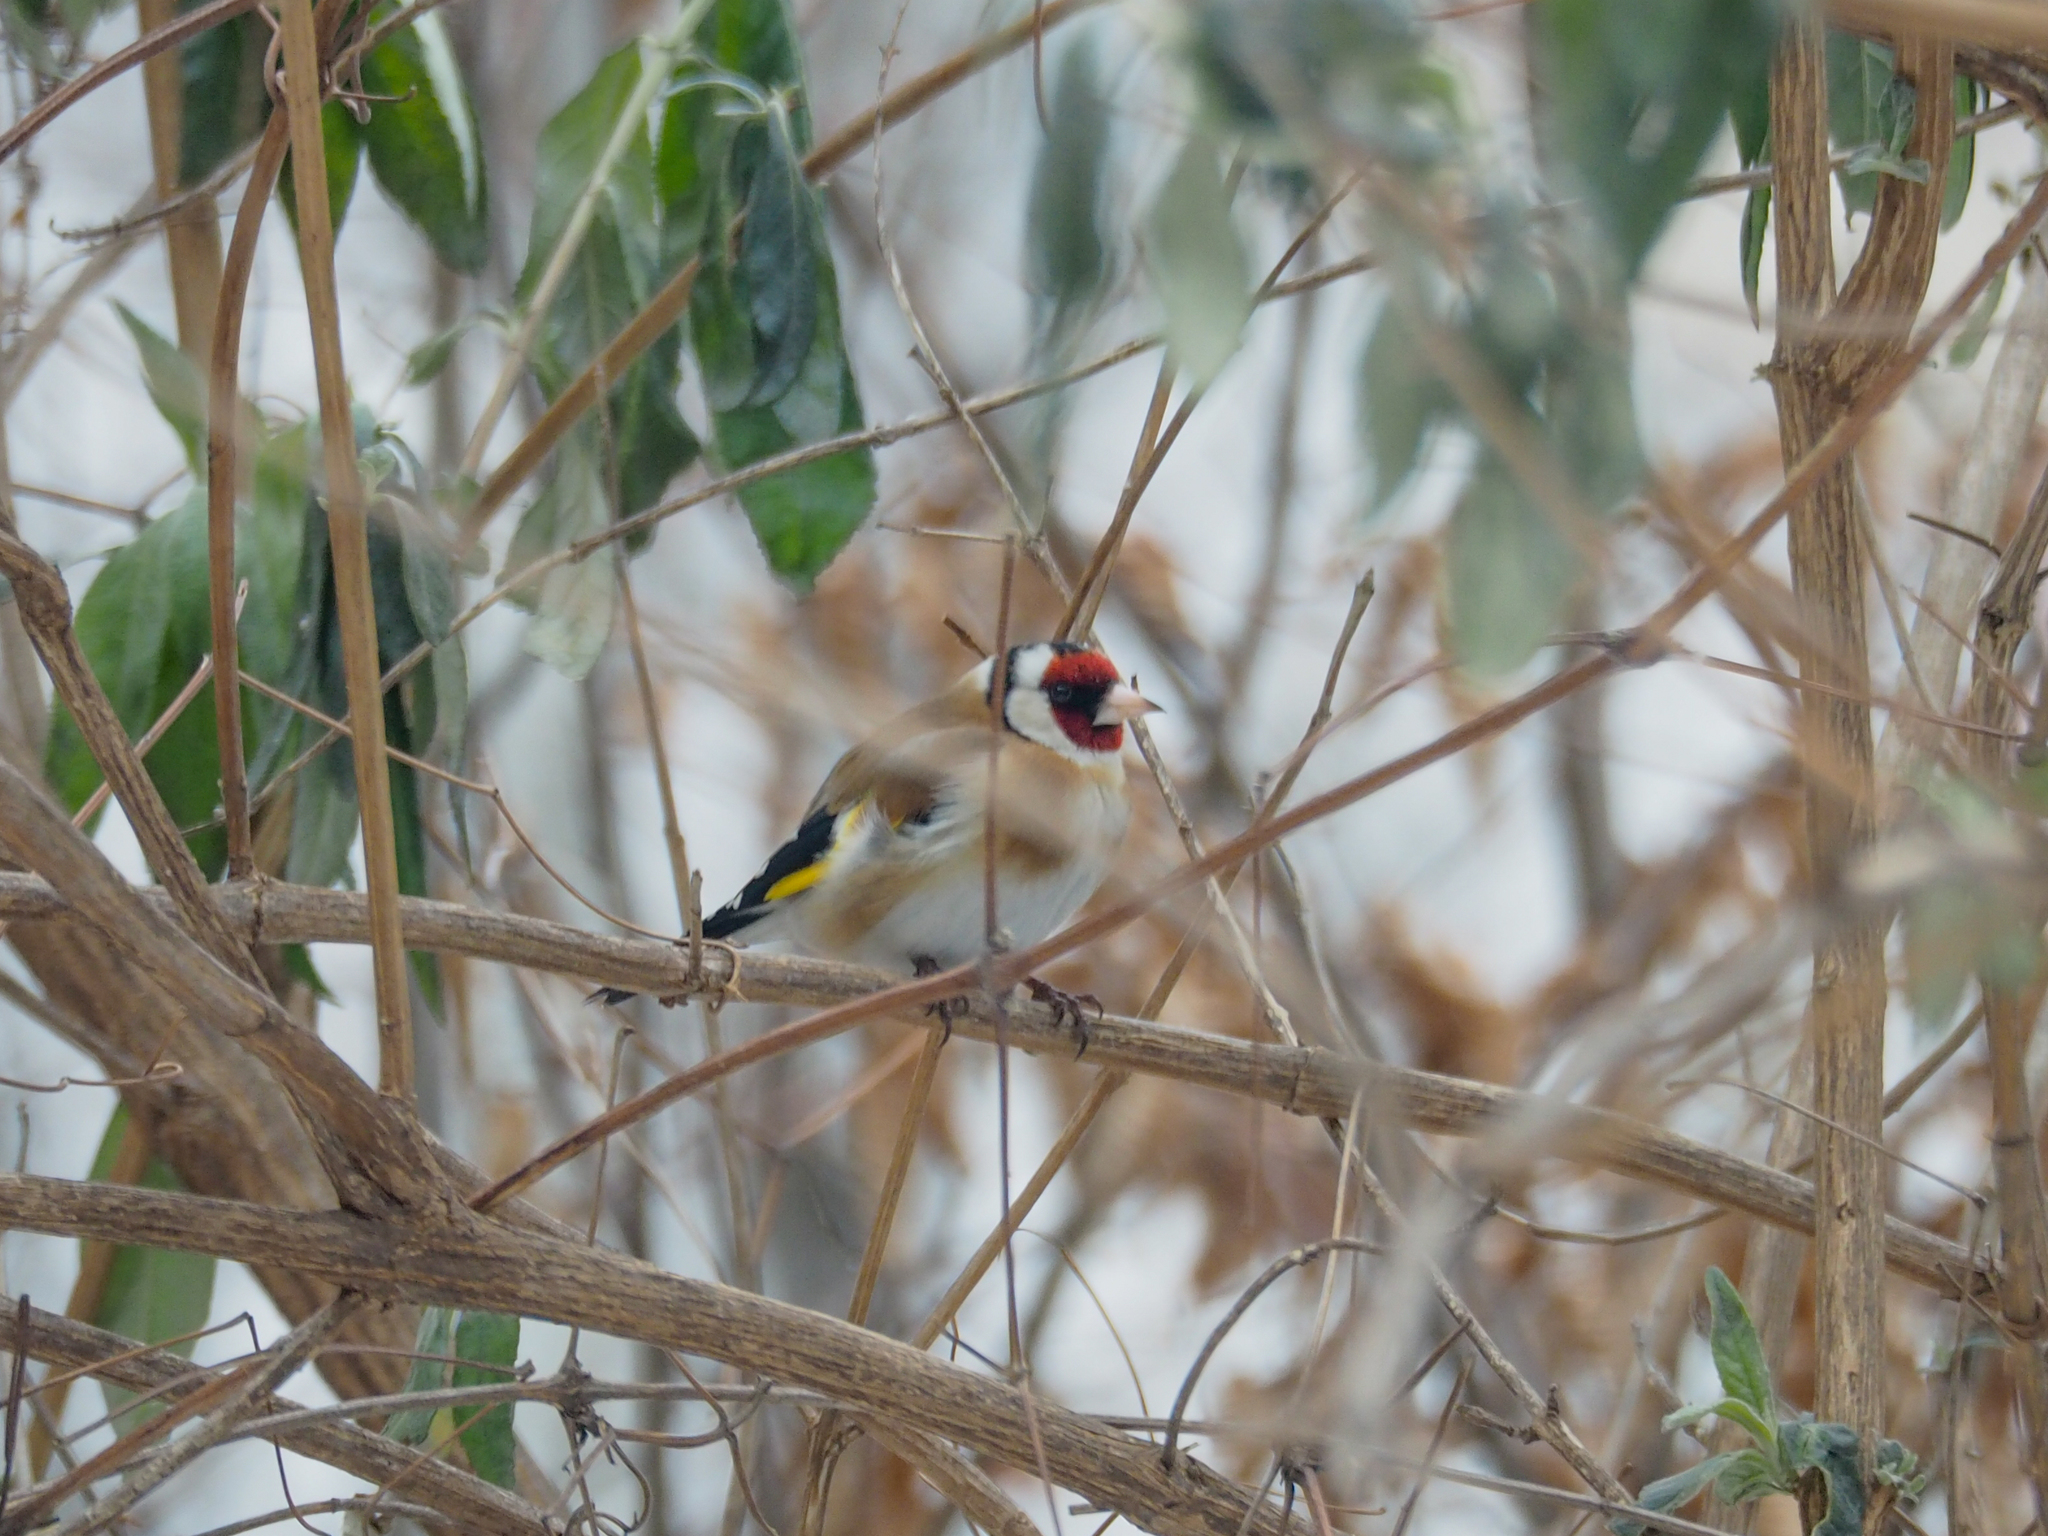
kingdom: Animalia
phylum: Chordata
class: Aves
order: Passeriformes
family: Fringillidae
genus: Carduelis
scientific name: Carduelis carduelis
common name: European goldfinch
